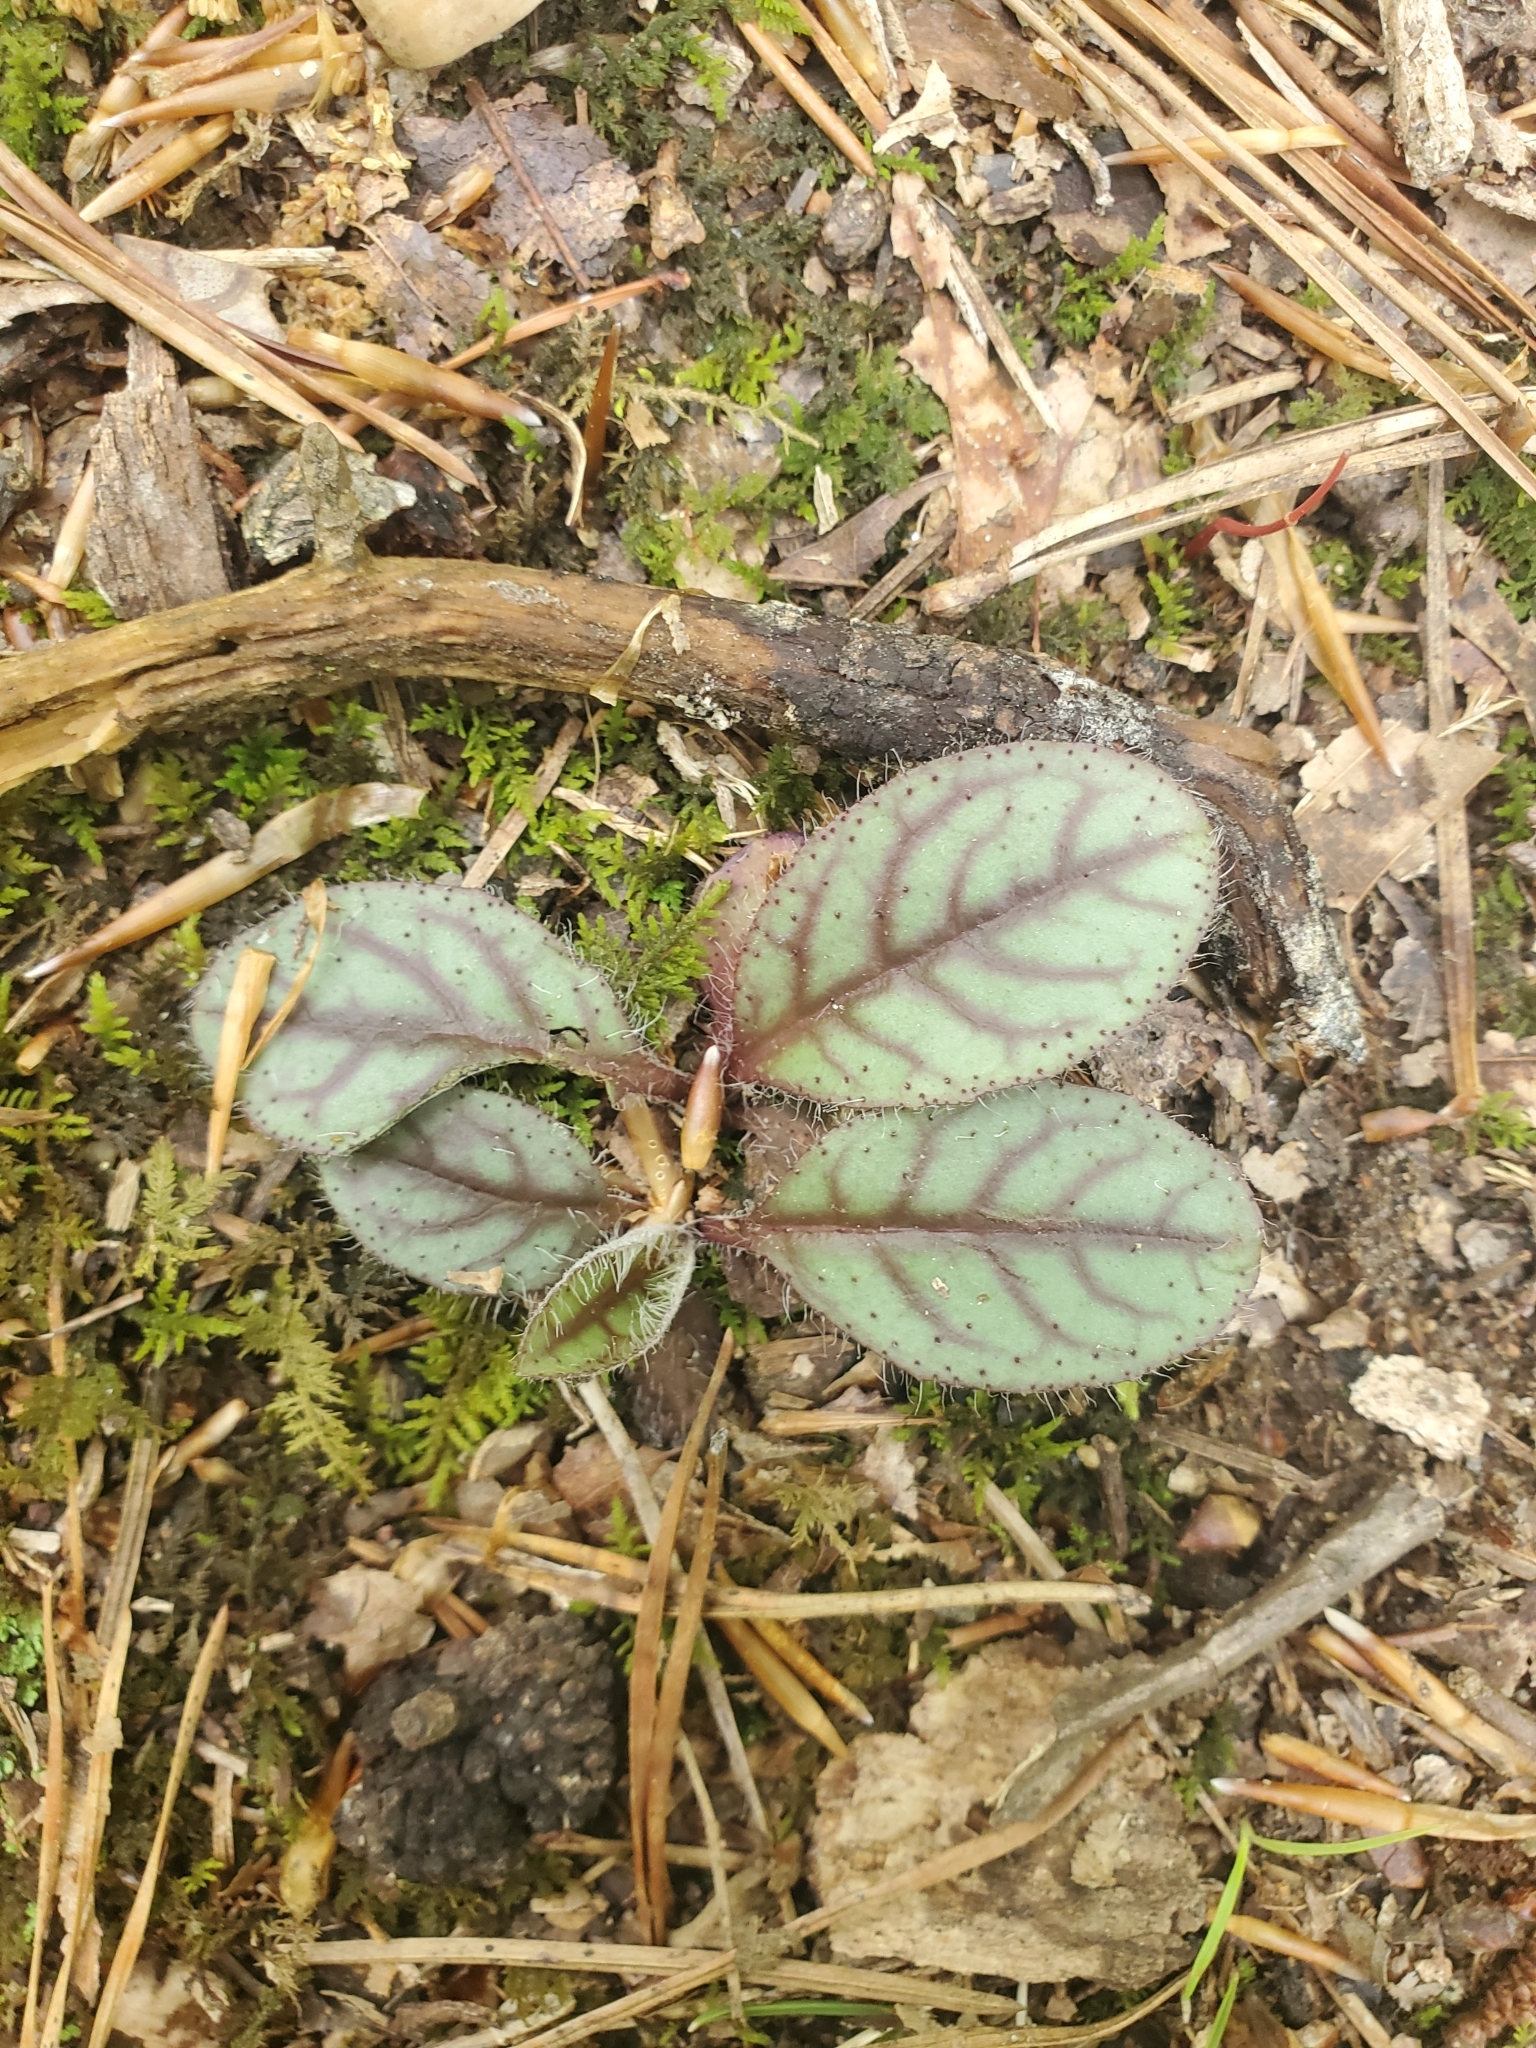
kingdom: Plantae
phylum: Tracheophyta
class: Magnoliopsida
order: Asterales
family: Asteraceae
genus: Hieracium
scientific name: Hieracium venosum
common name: Rattlesnake hawkweed
